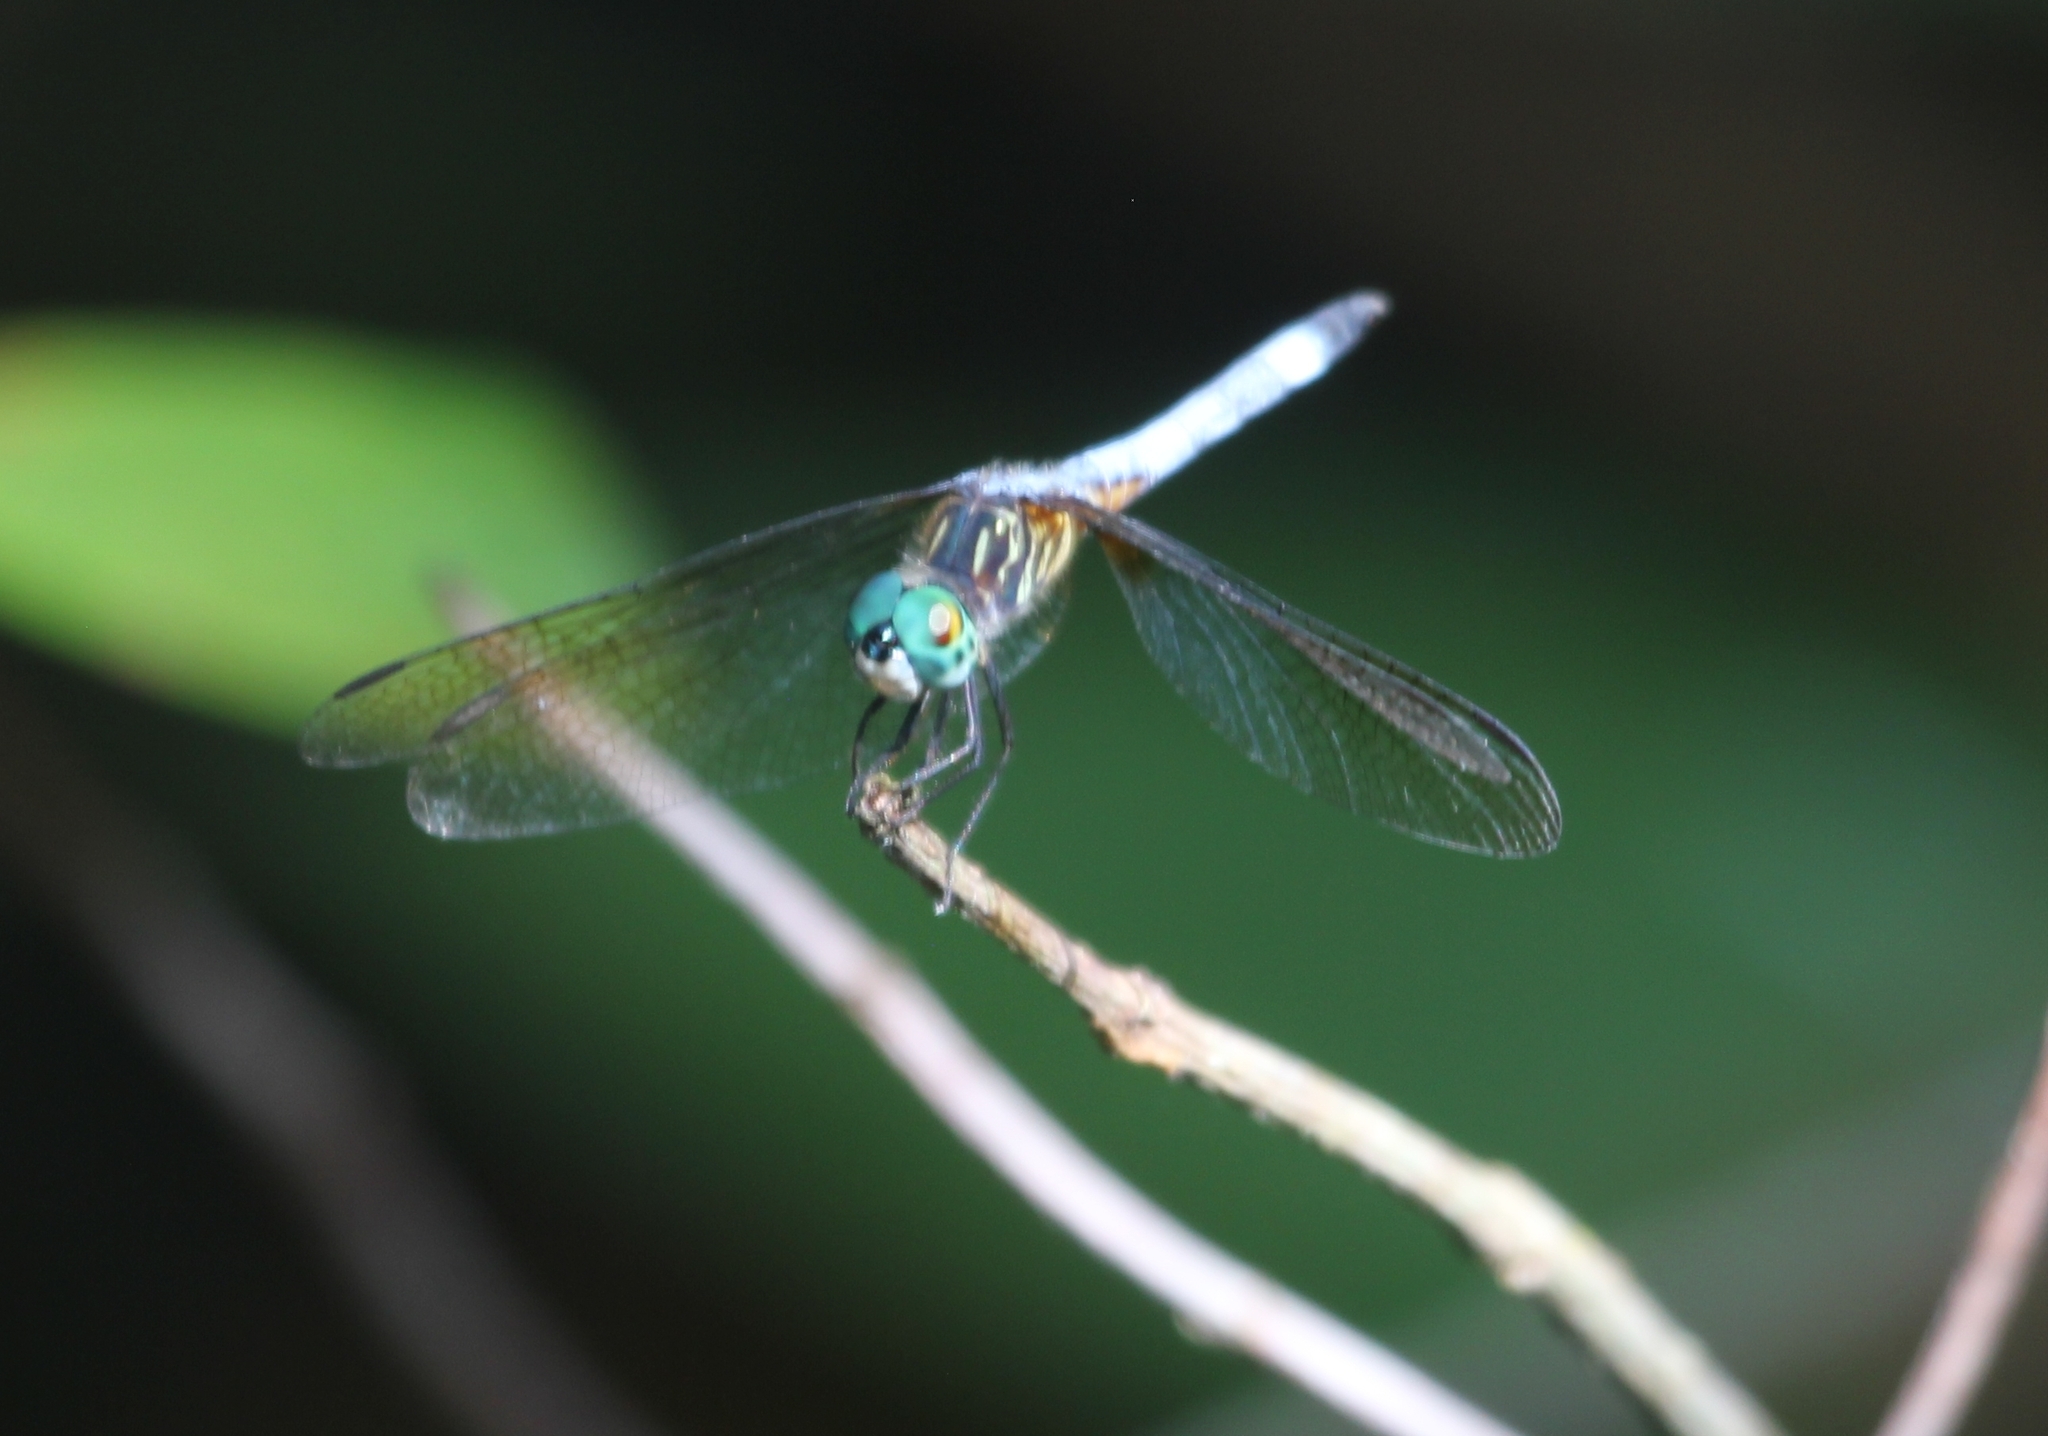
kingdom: Animalia
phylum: Arthropoda
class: Insecta
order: Odonata
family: Libellulidae
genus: Pachydiplax
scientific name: Pachydiplax longipennis
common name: Blue dasher
